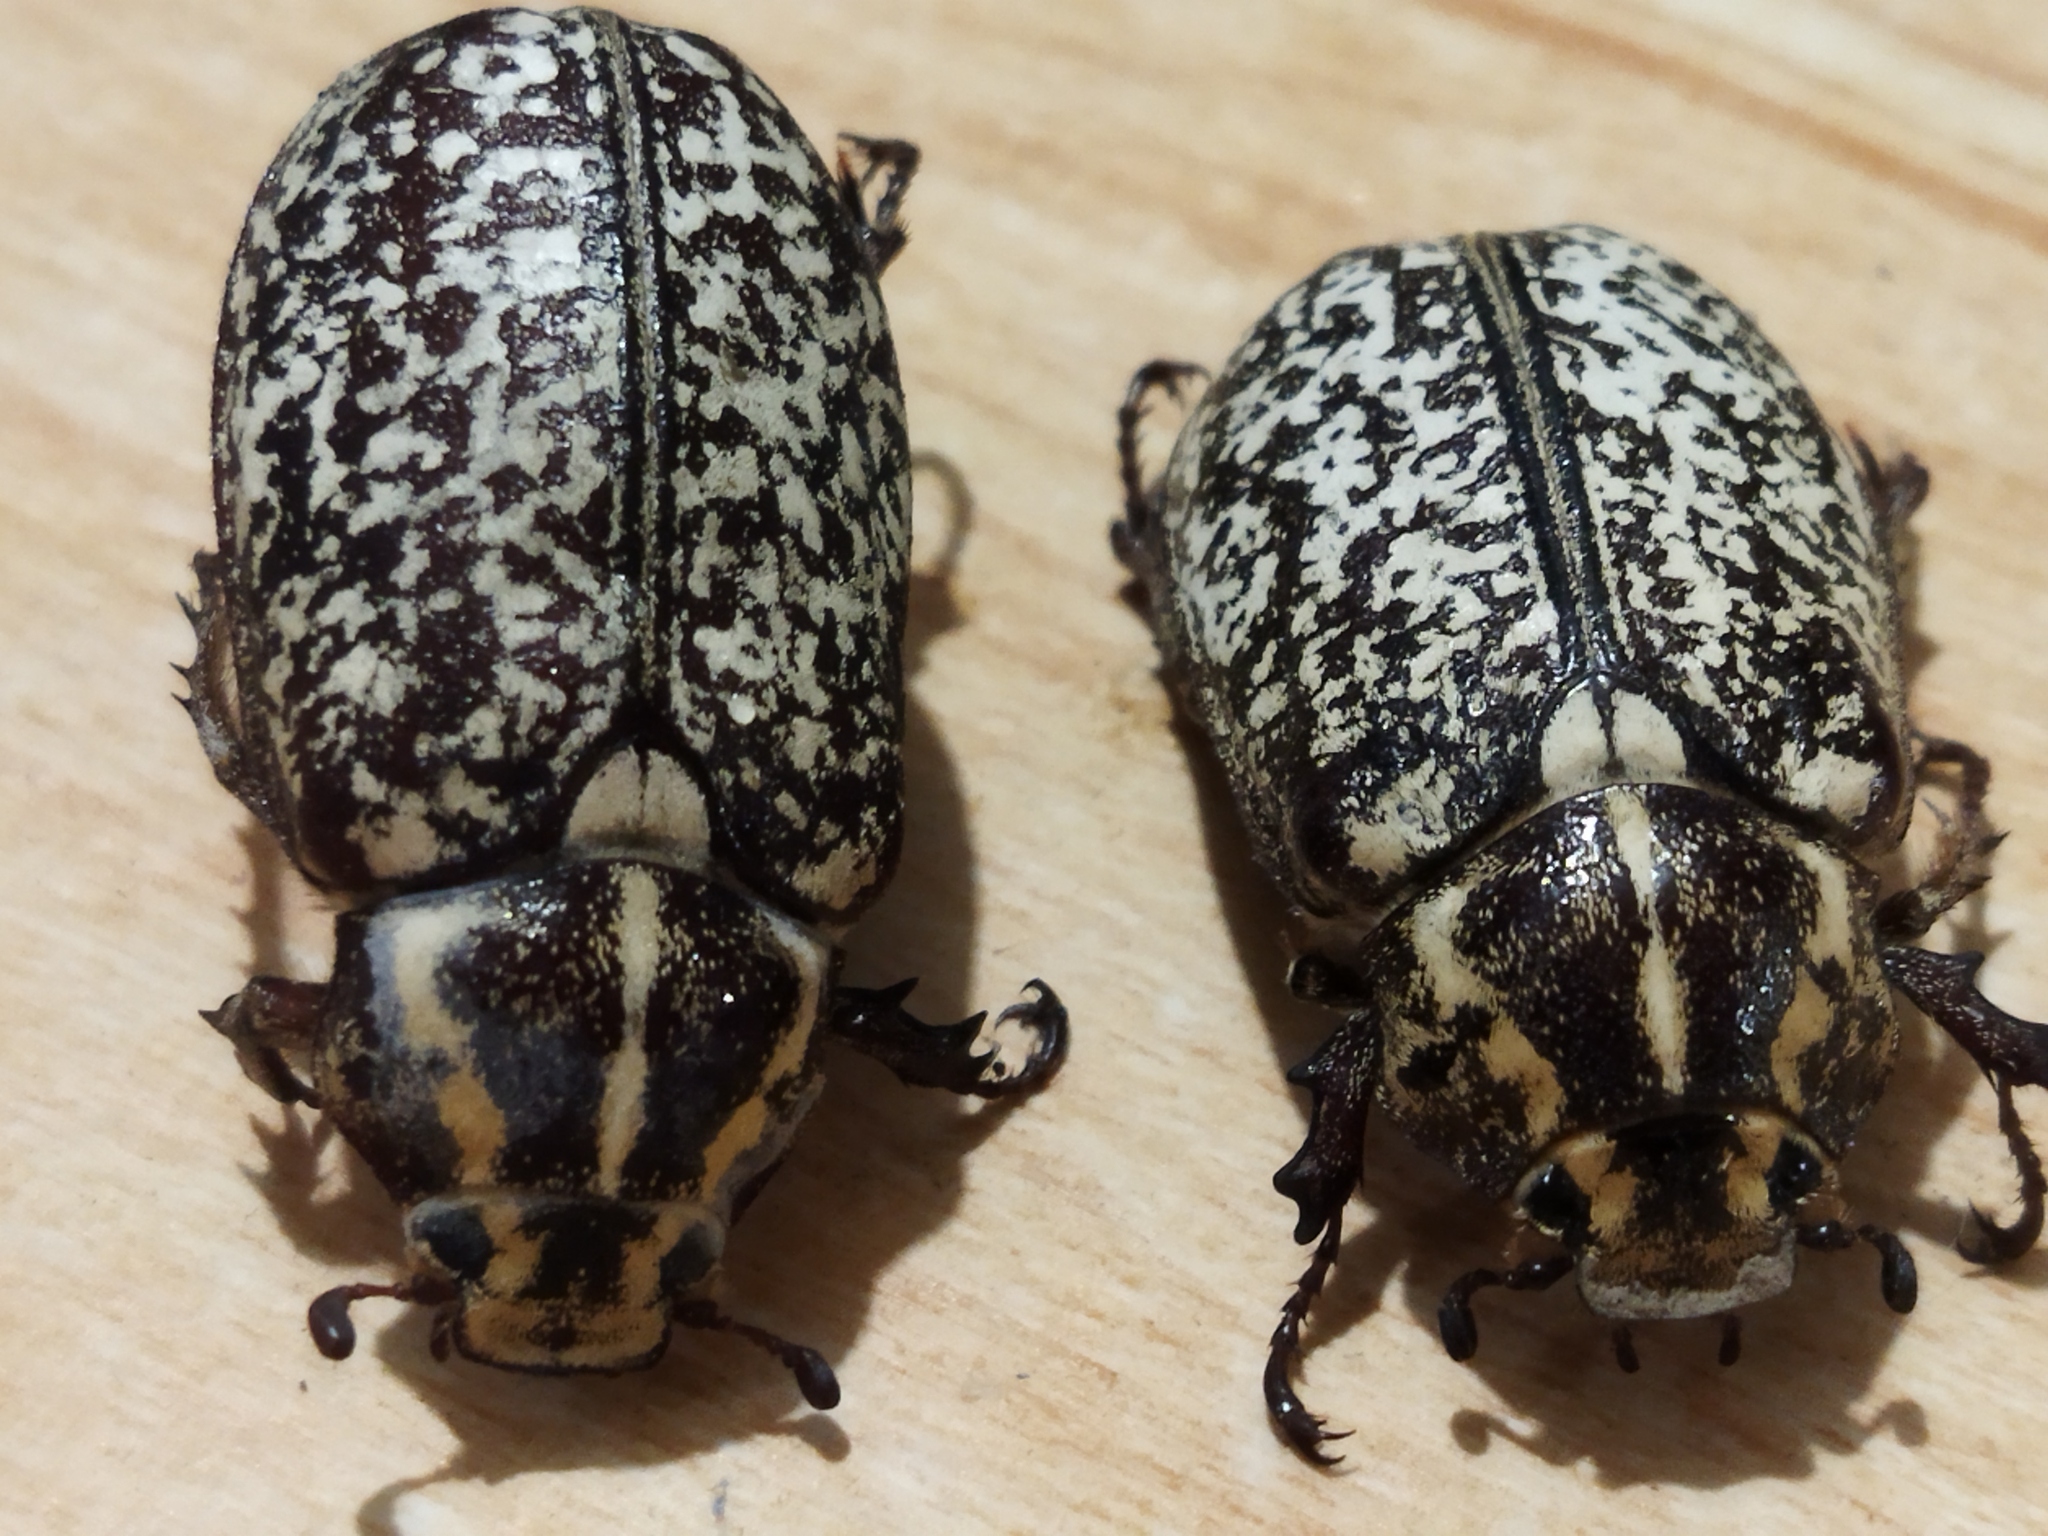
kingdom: Animalia
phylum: Arthropoda
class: Insecta
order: Coleoptera
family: Scarabaeidae
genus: Polyphylla
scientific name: Polyphylla fullo
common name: Pine chafer
